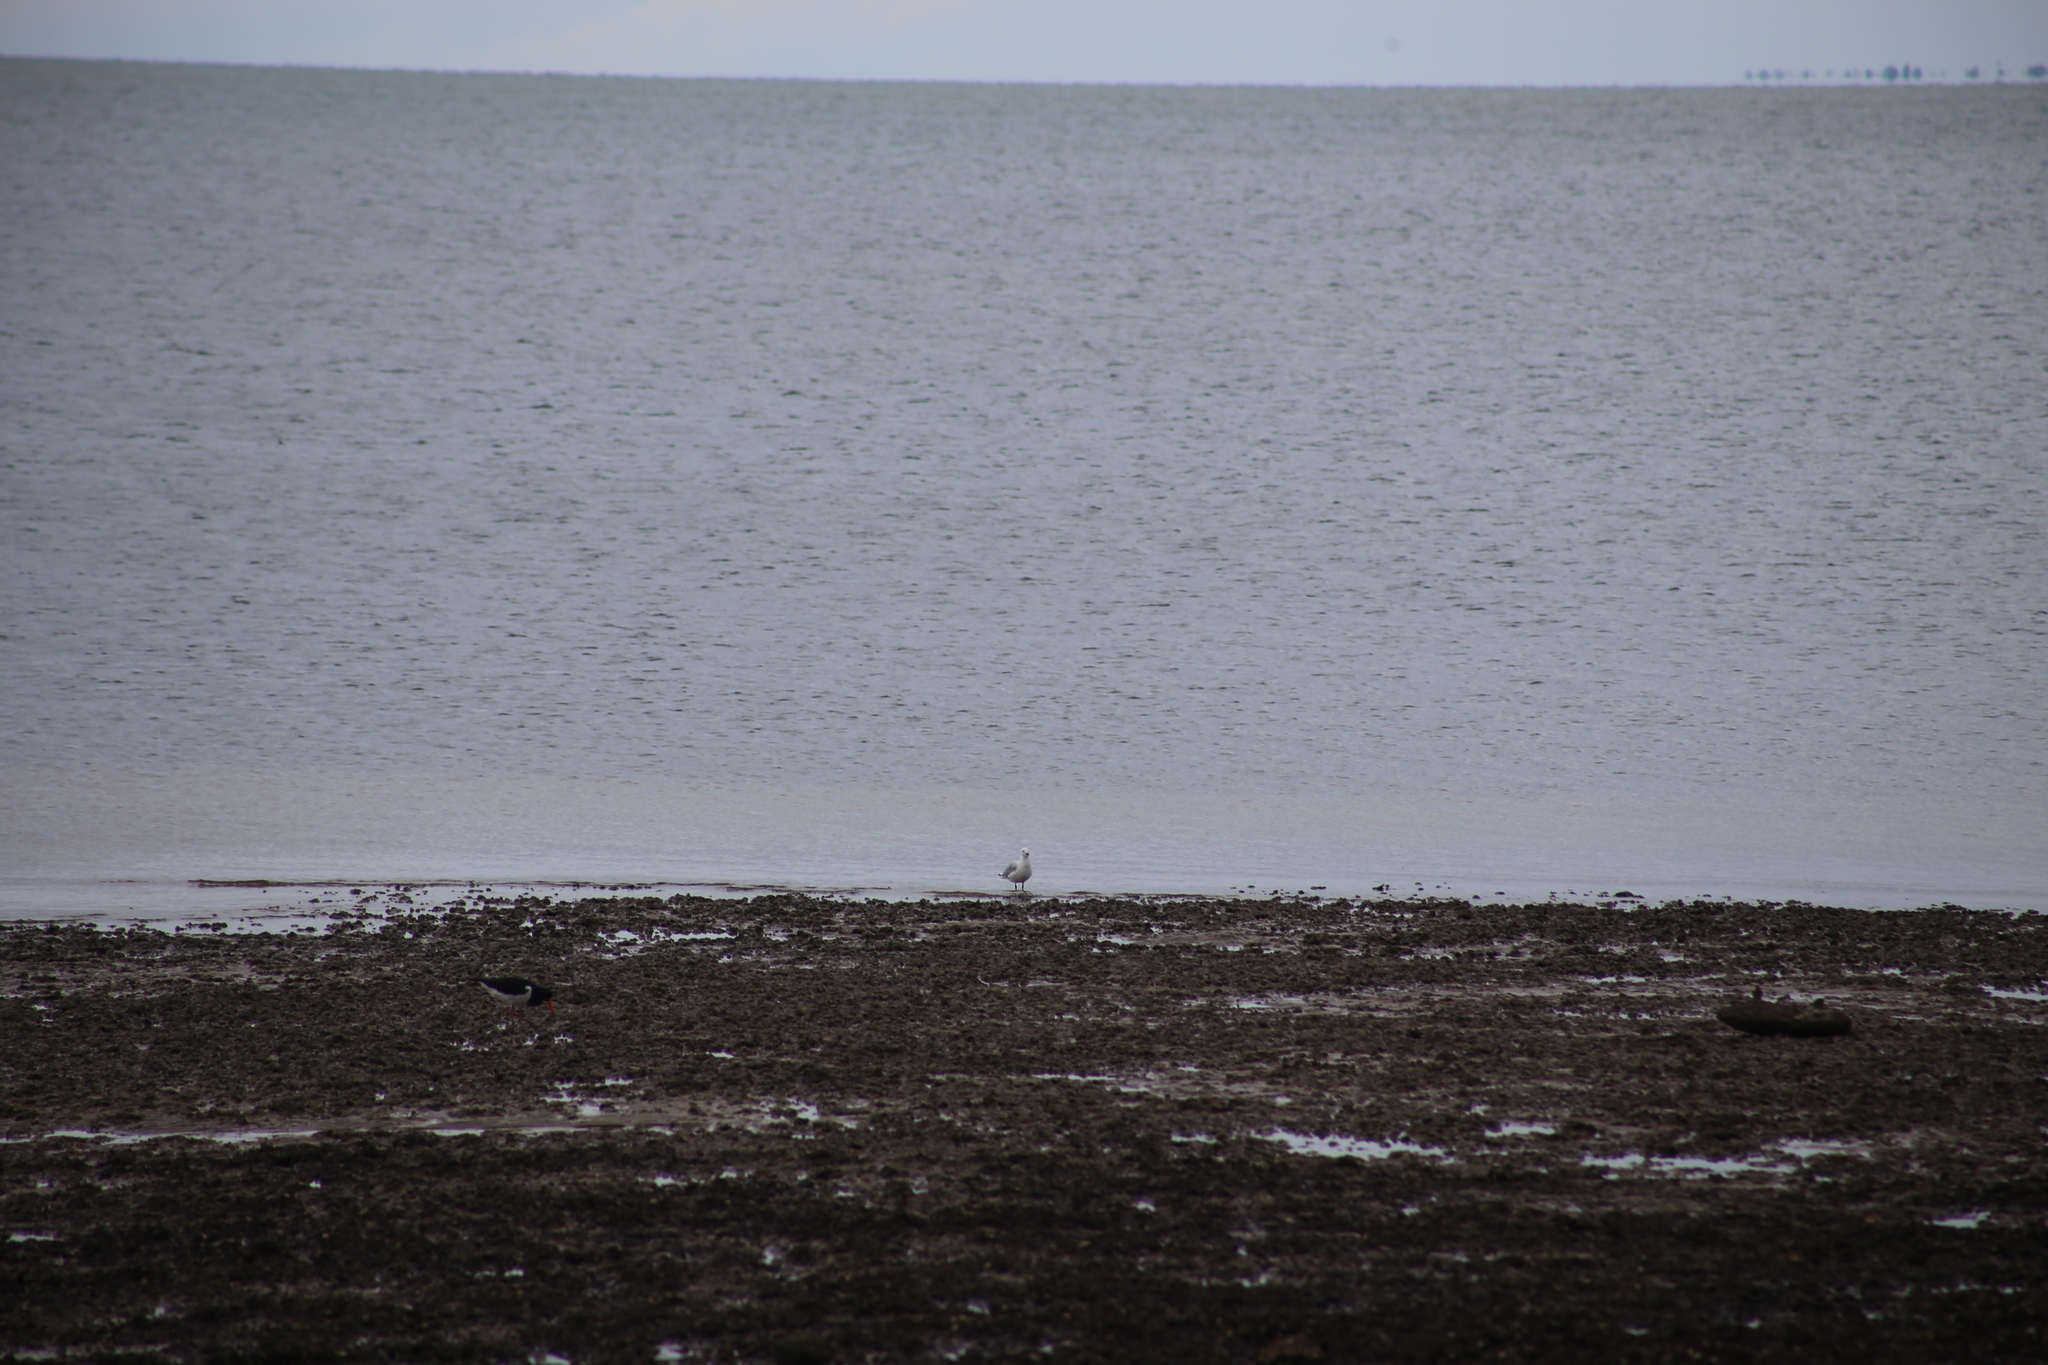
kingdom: Animalia
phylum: Chordata
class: Aves
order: Charadriiformes
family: Laridae
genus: Chroicocephalus
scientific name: Chroicocephalus novaehollandiae
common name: Silver gull
